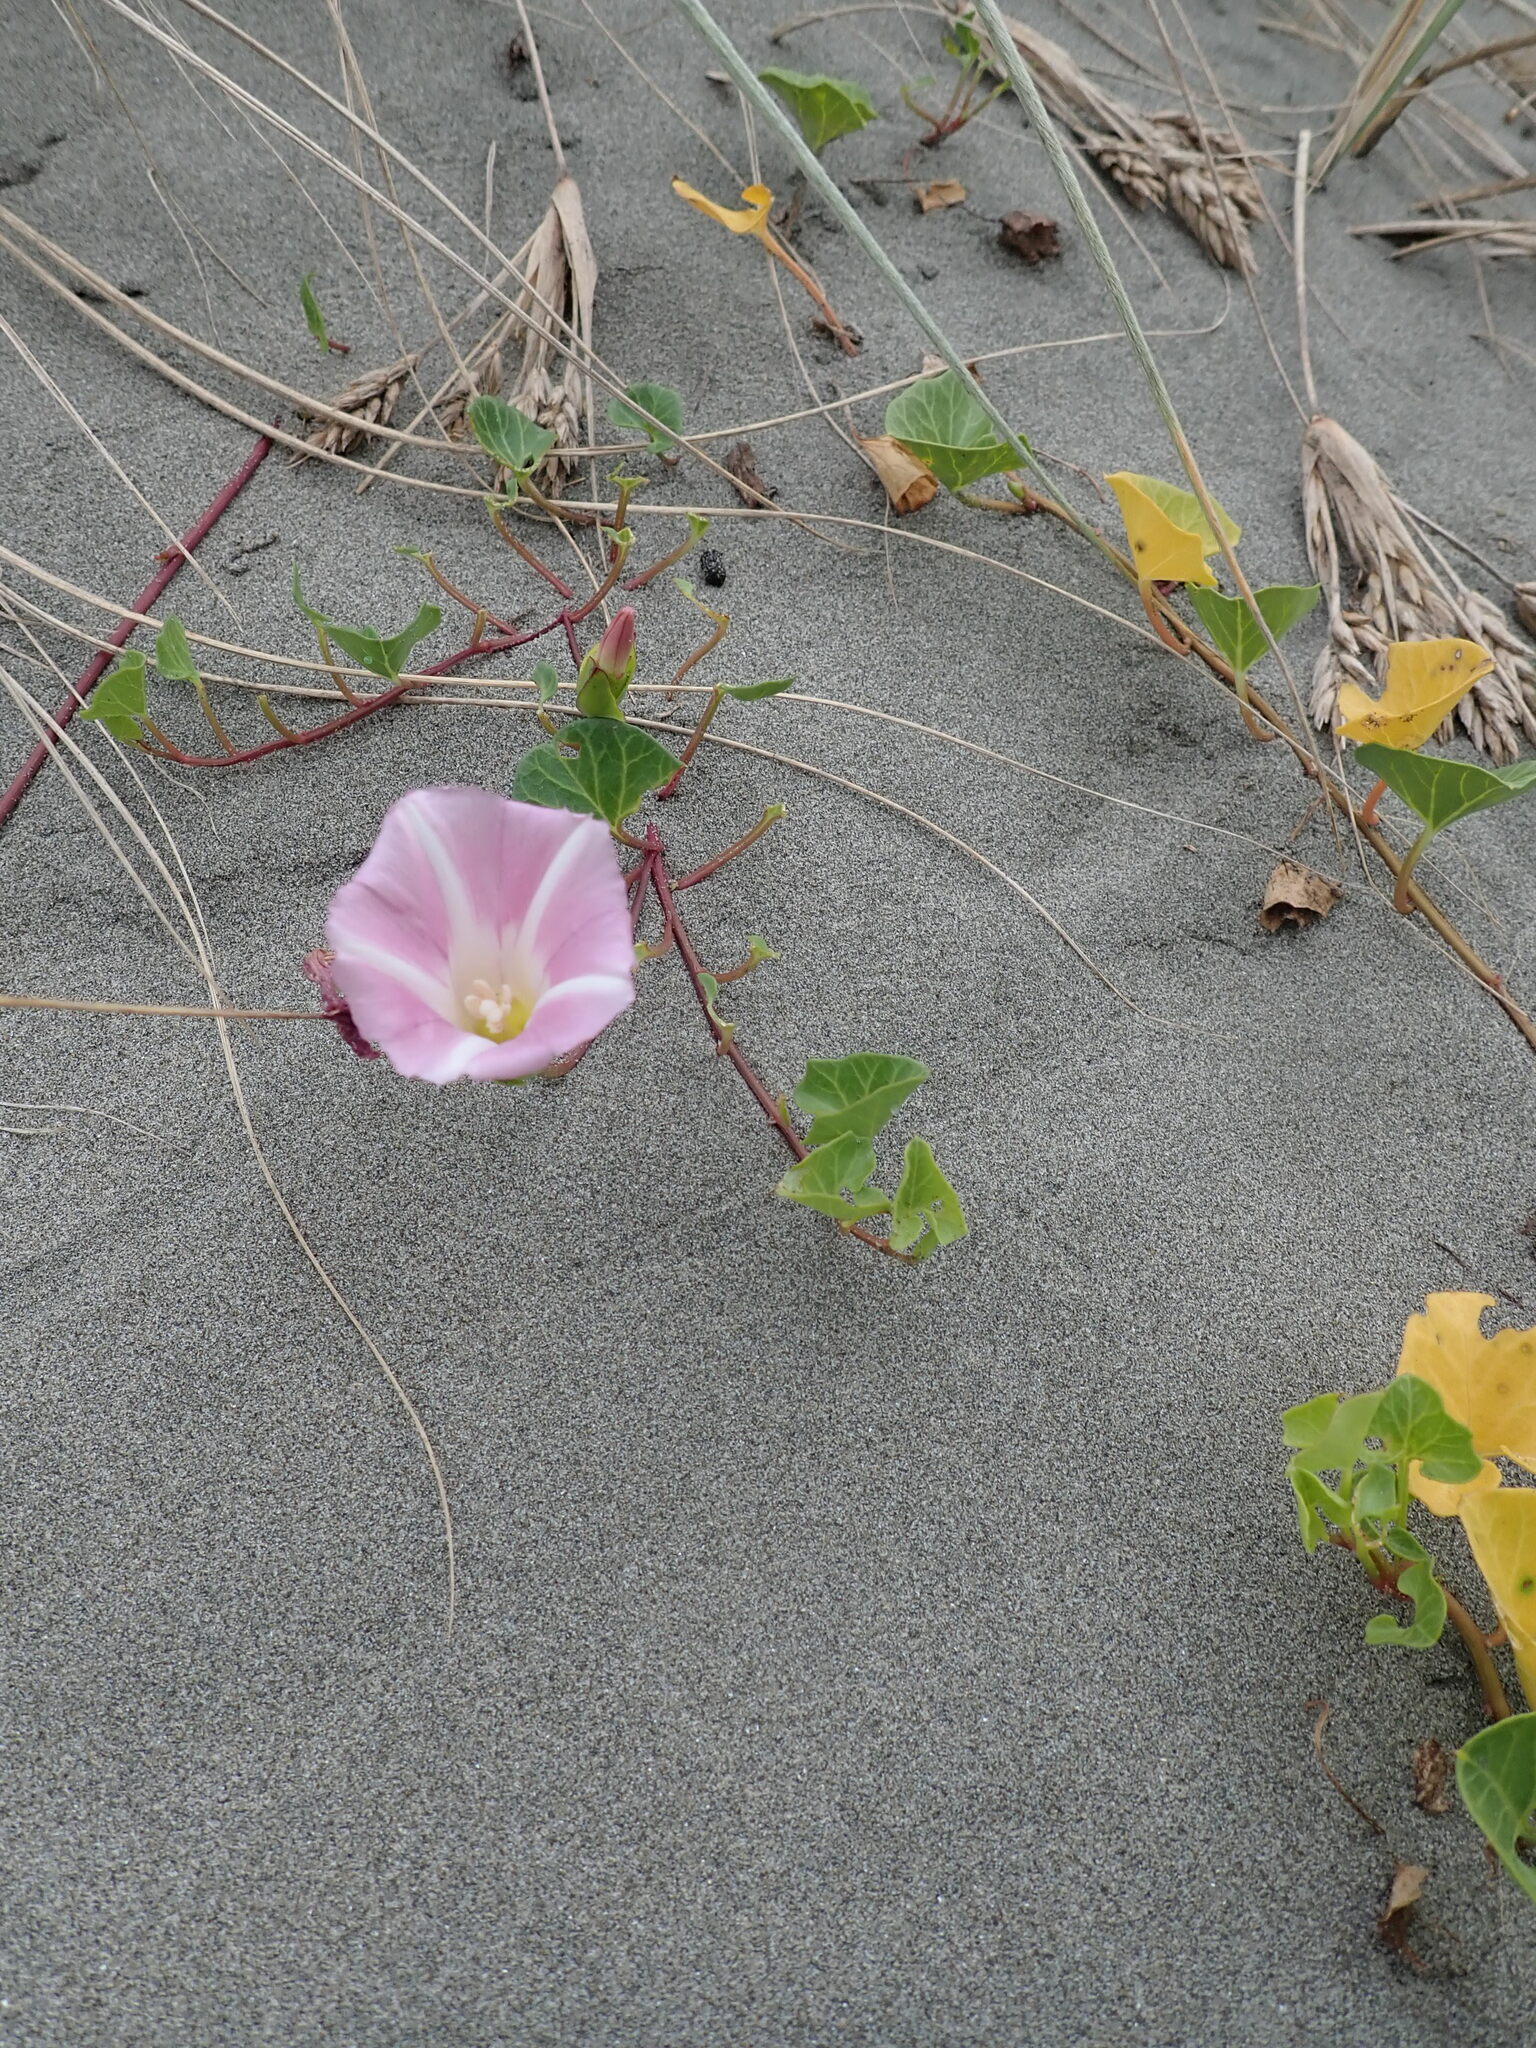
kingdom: Plantae
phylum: Tracheophyta
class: Magnoliopsida
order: Solanales
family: Convolvulaceae
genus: Calystegia
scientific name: Calystegia soldanella
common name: Sea bindweed
